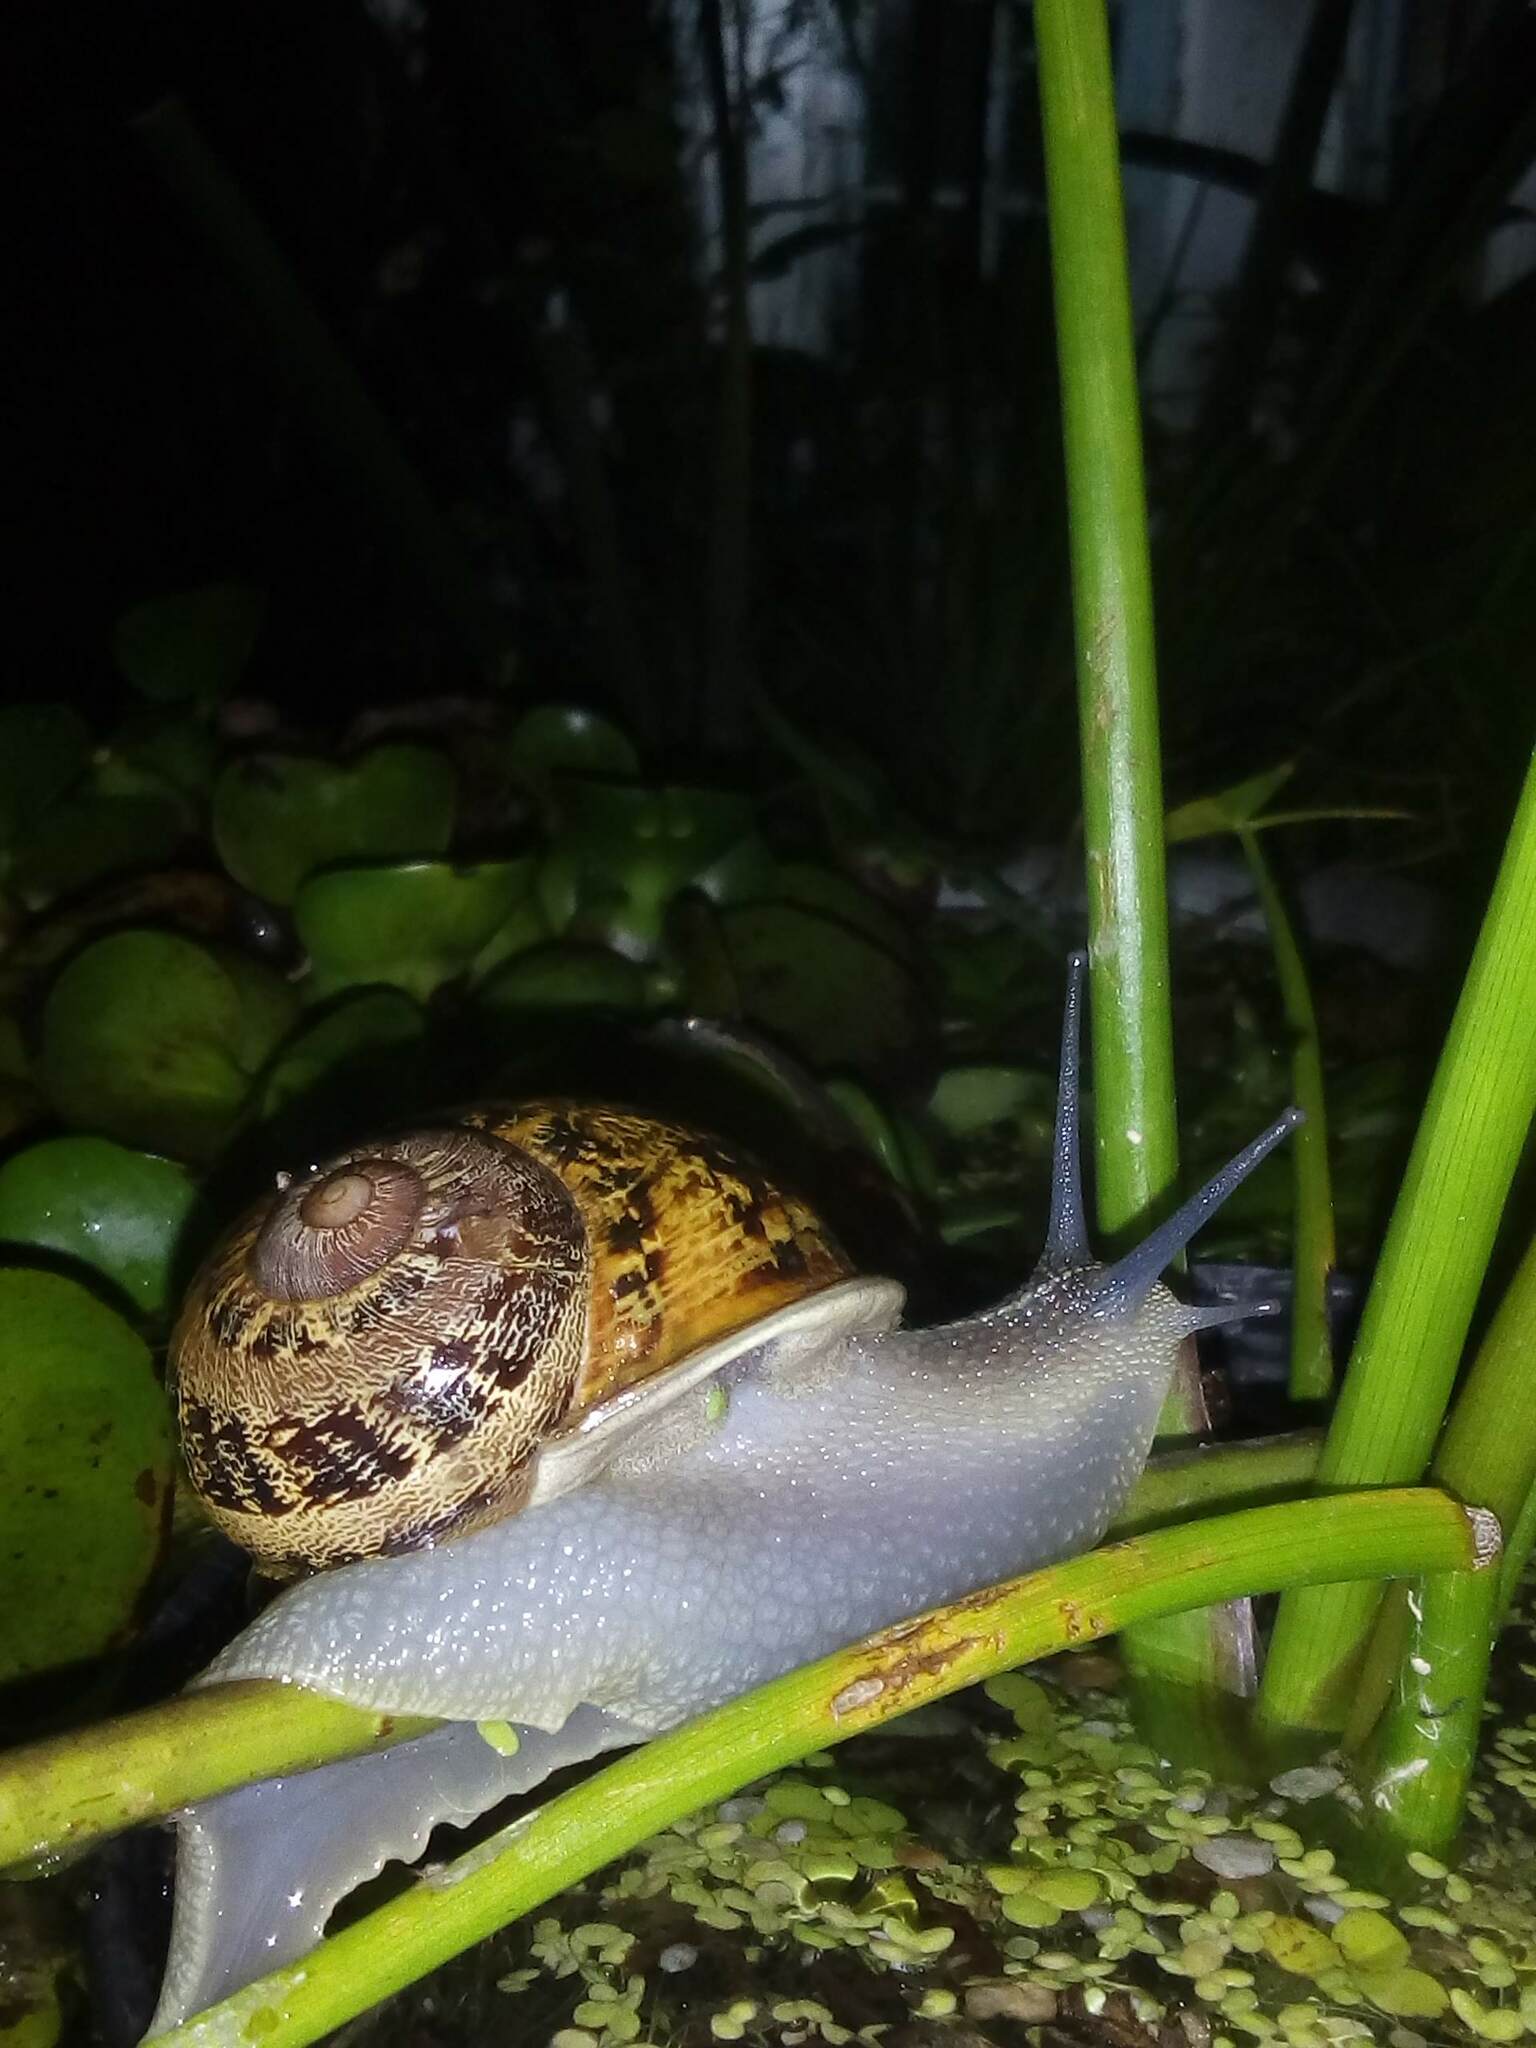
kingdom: Animalia
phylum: Mollusca
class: Gastropoda
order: Stylommatophora
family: Helicidae
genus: Cornu
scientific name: Cornu aspersum
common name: Brown garden snail
